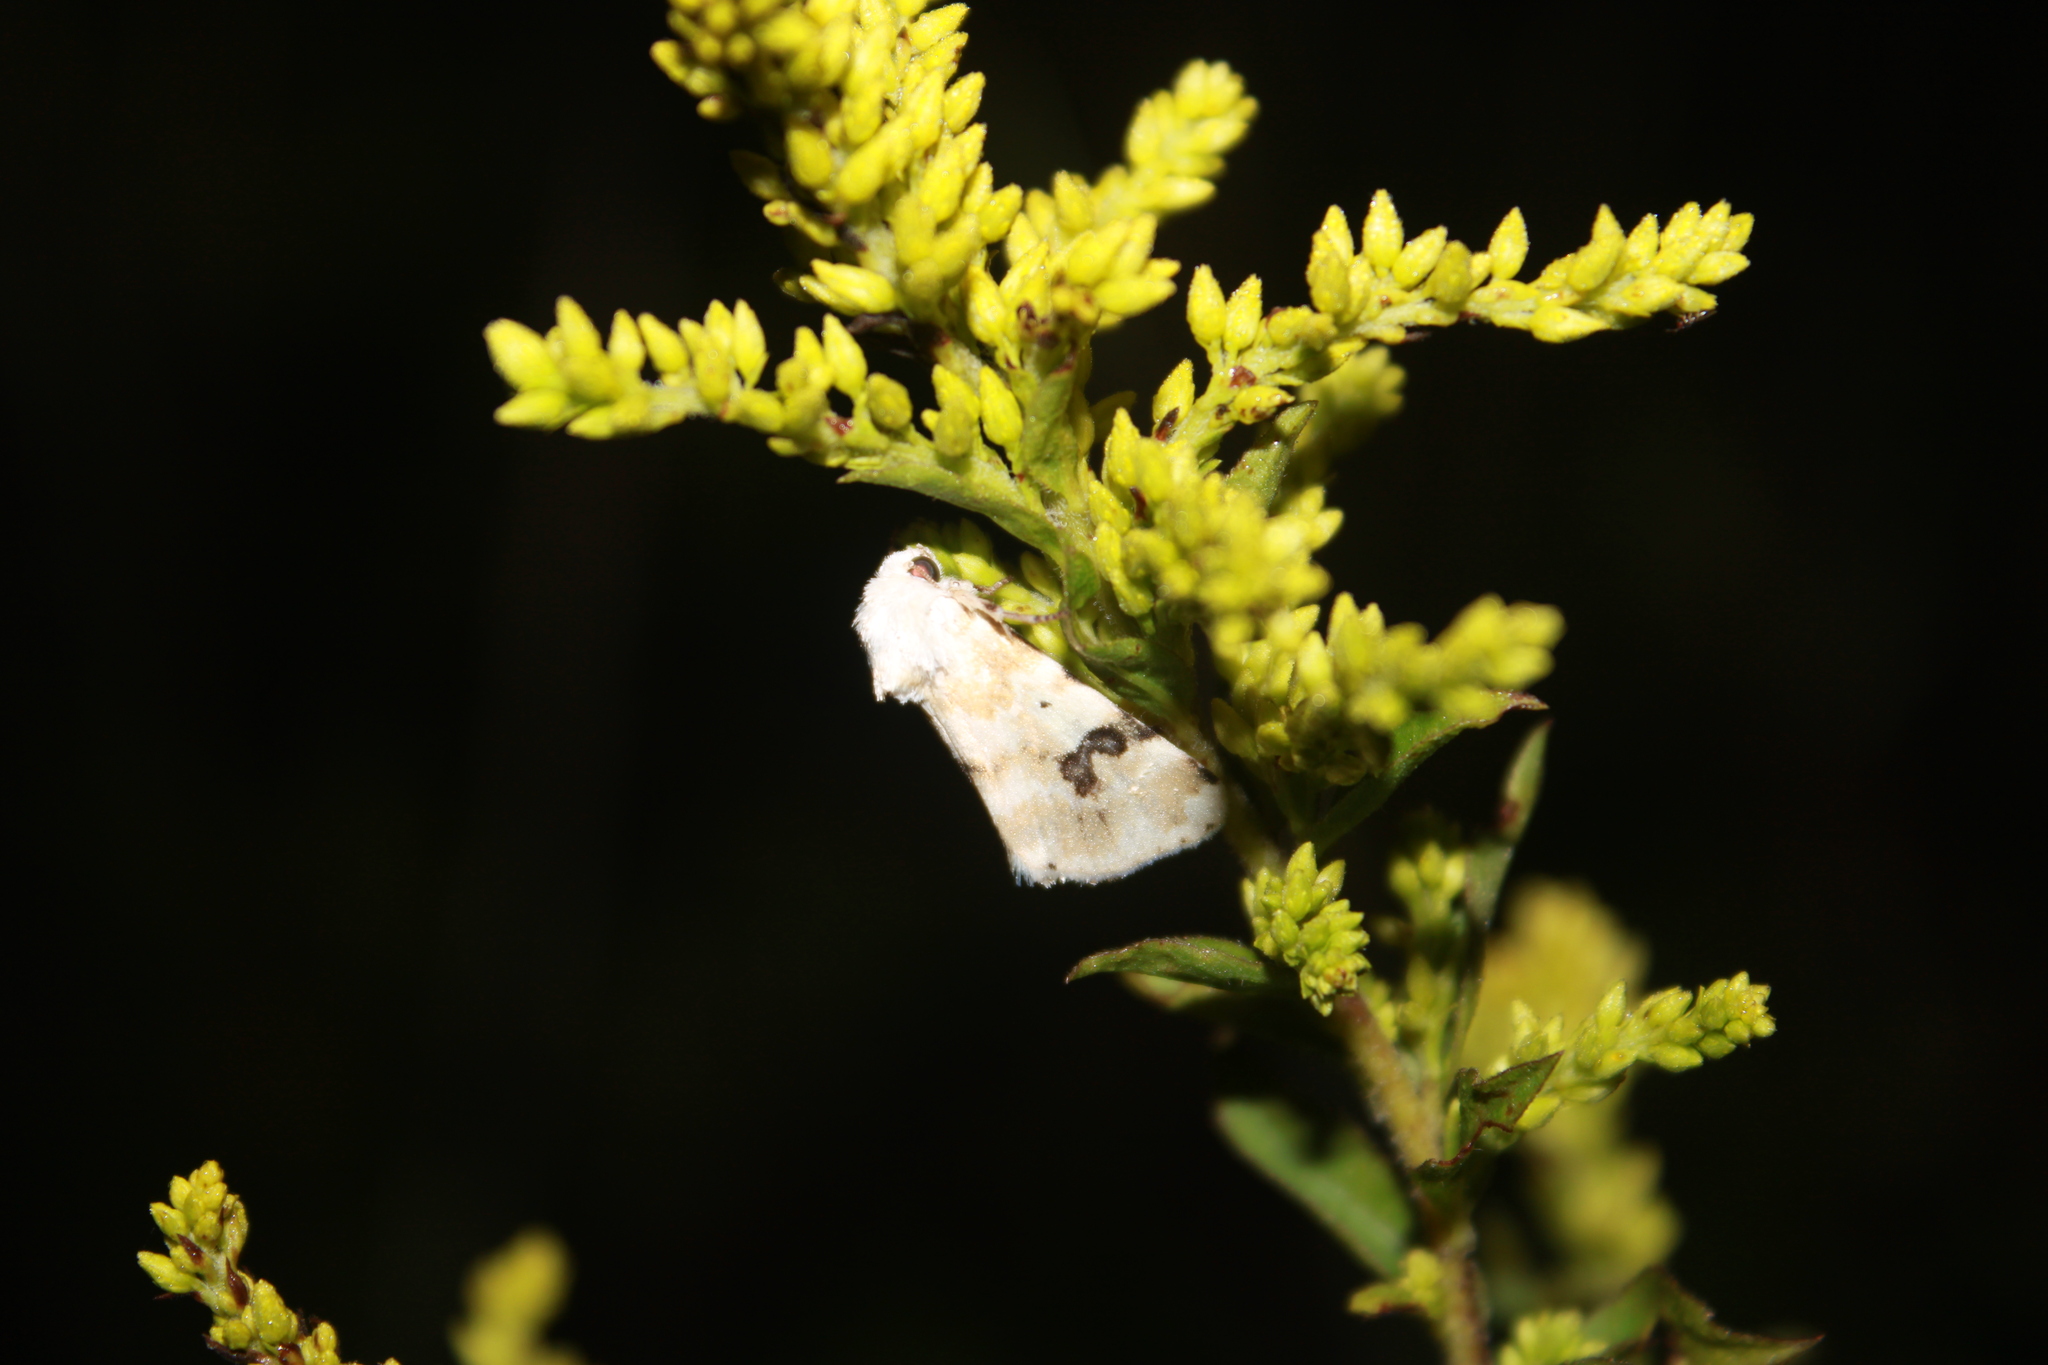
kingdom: Animalia
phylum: Arthropoda
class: Insecta
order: Lepidoptera
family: Noctuidae
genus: Schinia
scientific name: Schinia nundina
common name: Goldenrod flower moth
